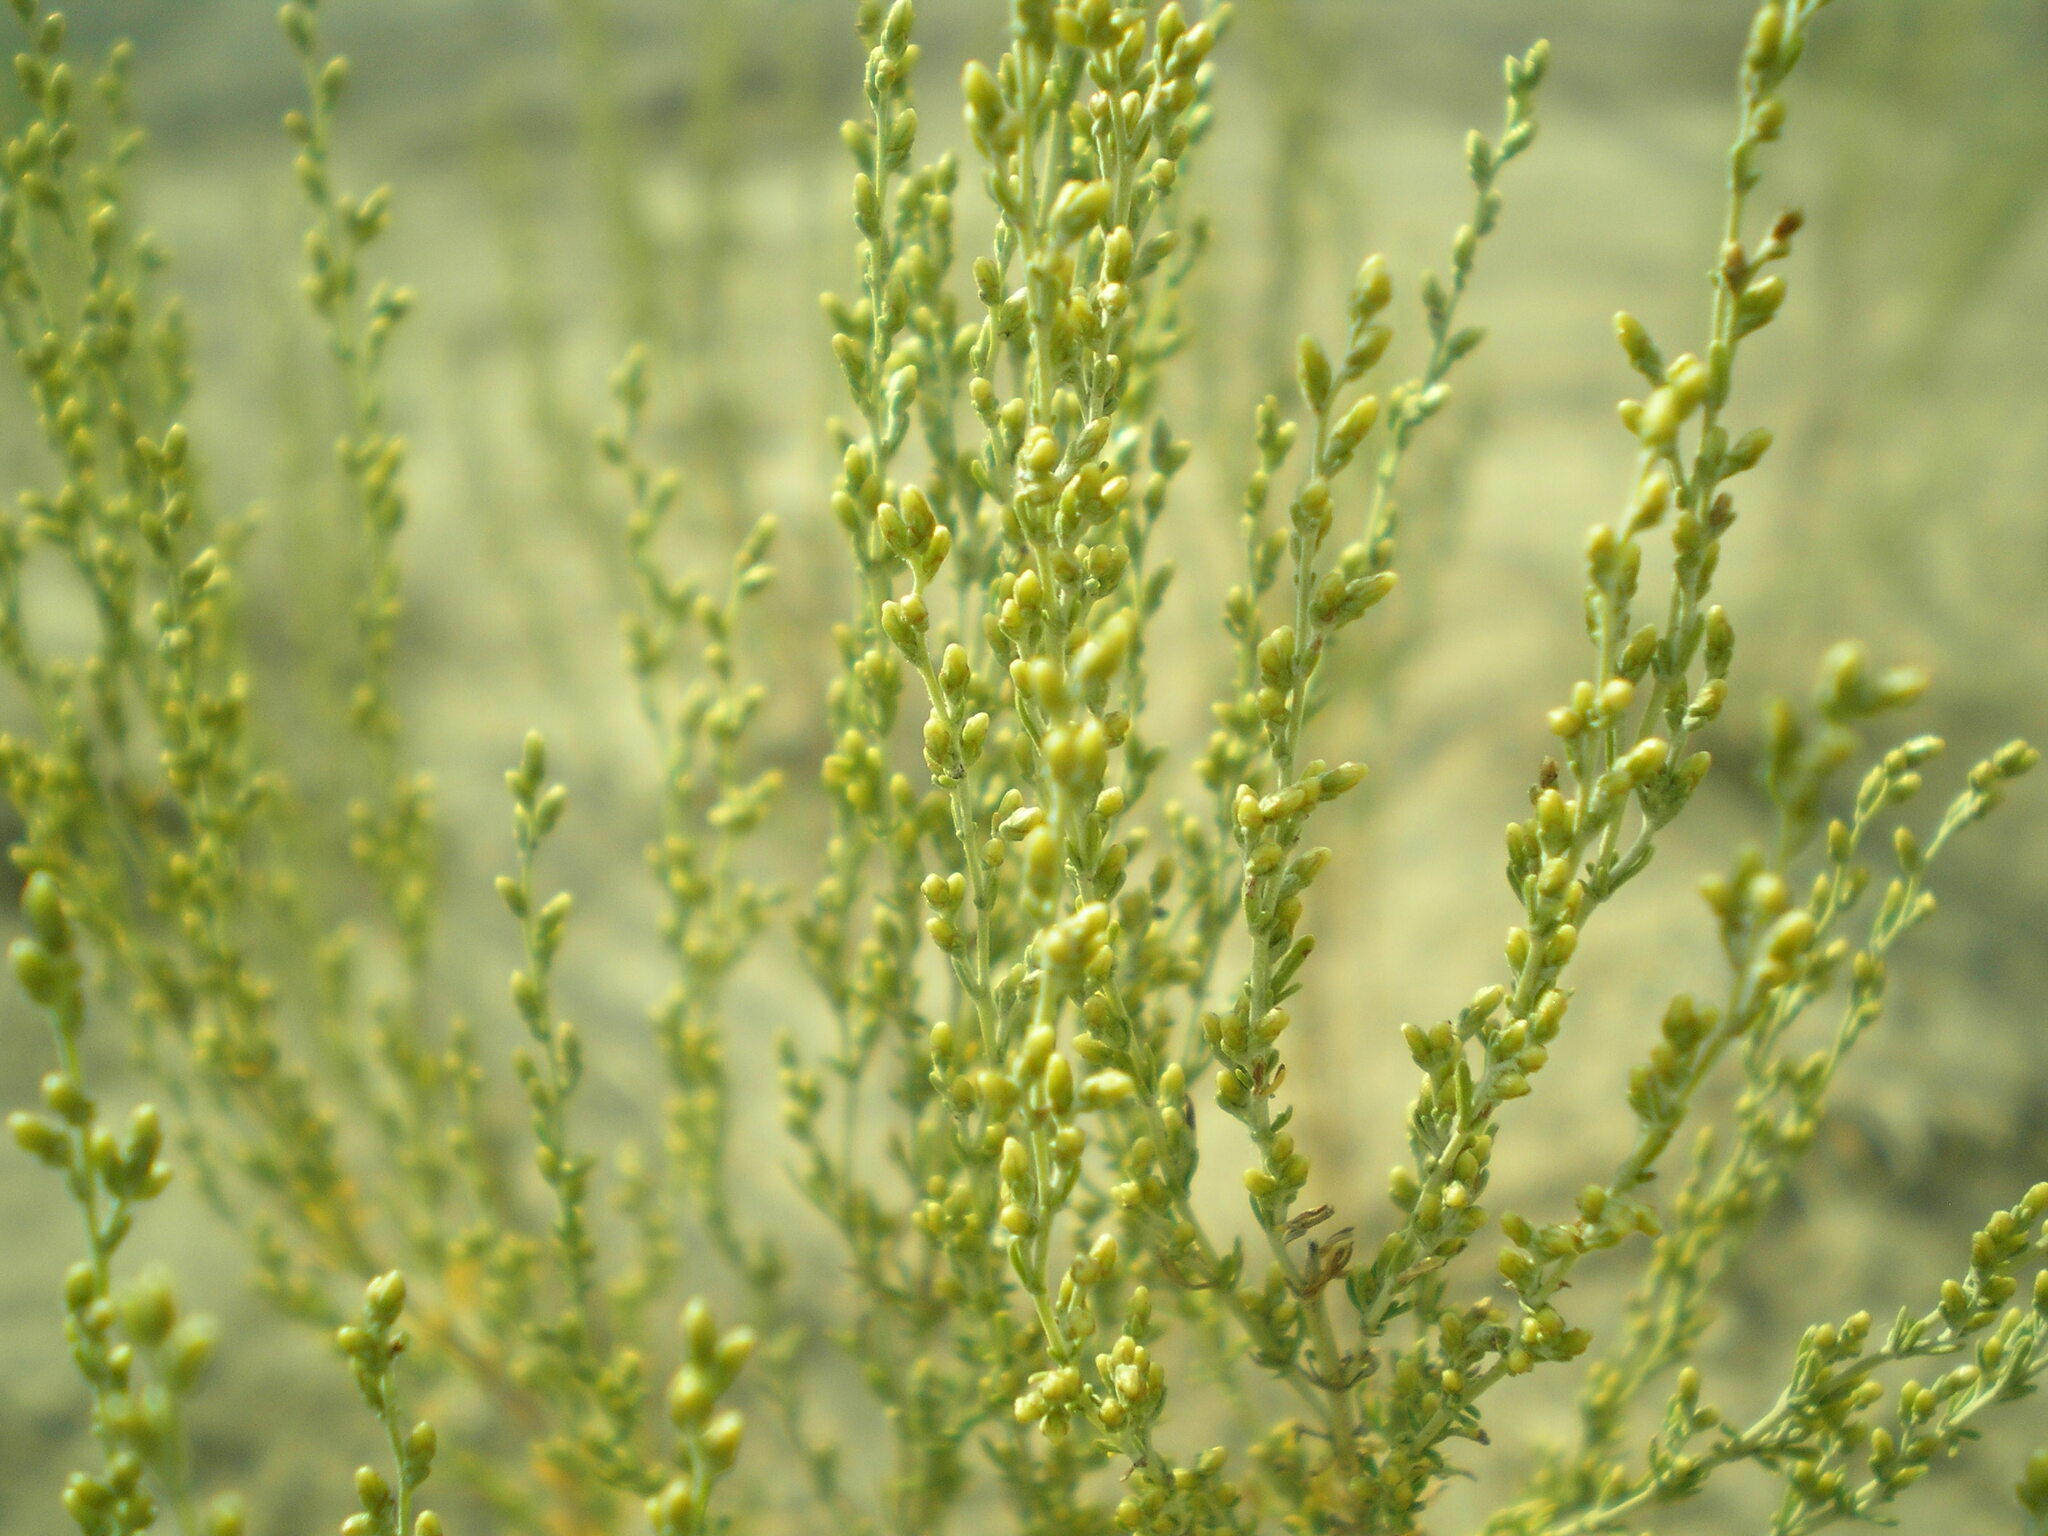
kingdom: Plantae
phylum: Tracheophyta
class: Magnoliopsida
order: Asterales
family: Asteraceae
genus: Artemisia
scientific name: Artemisia pauciflora
